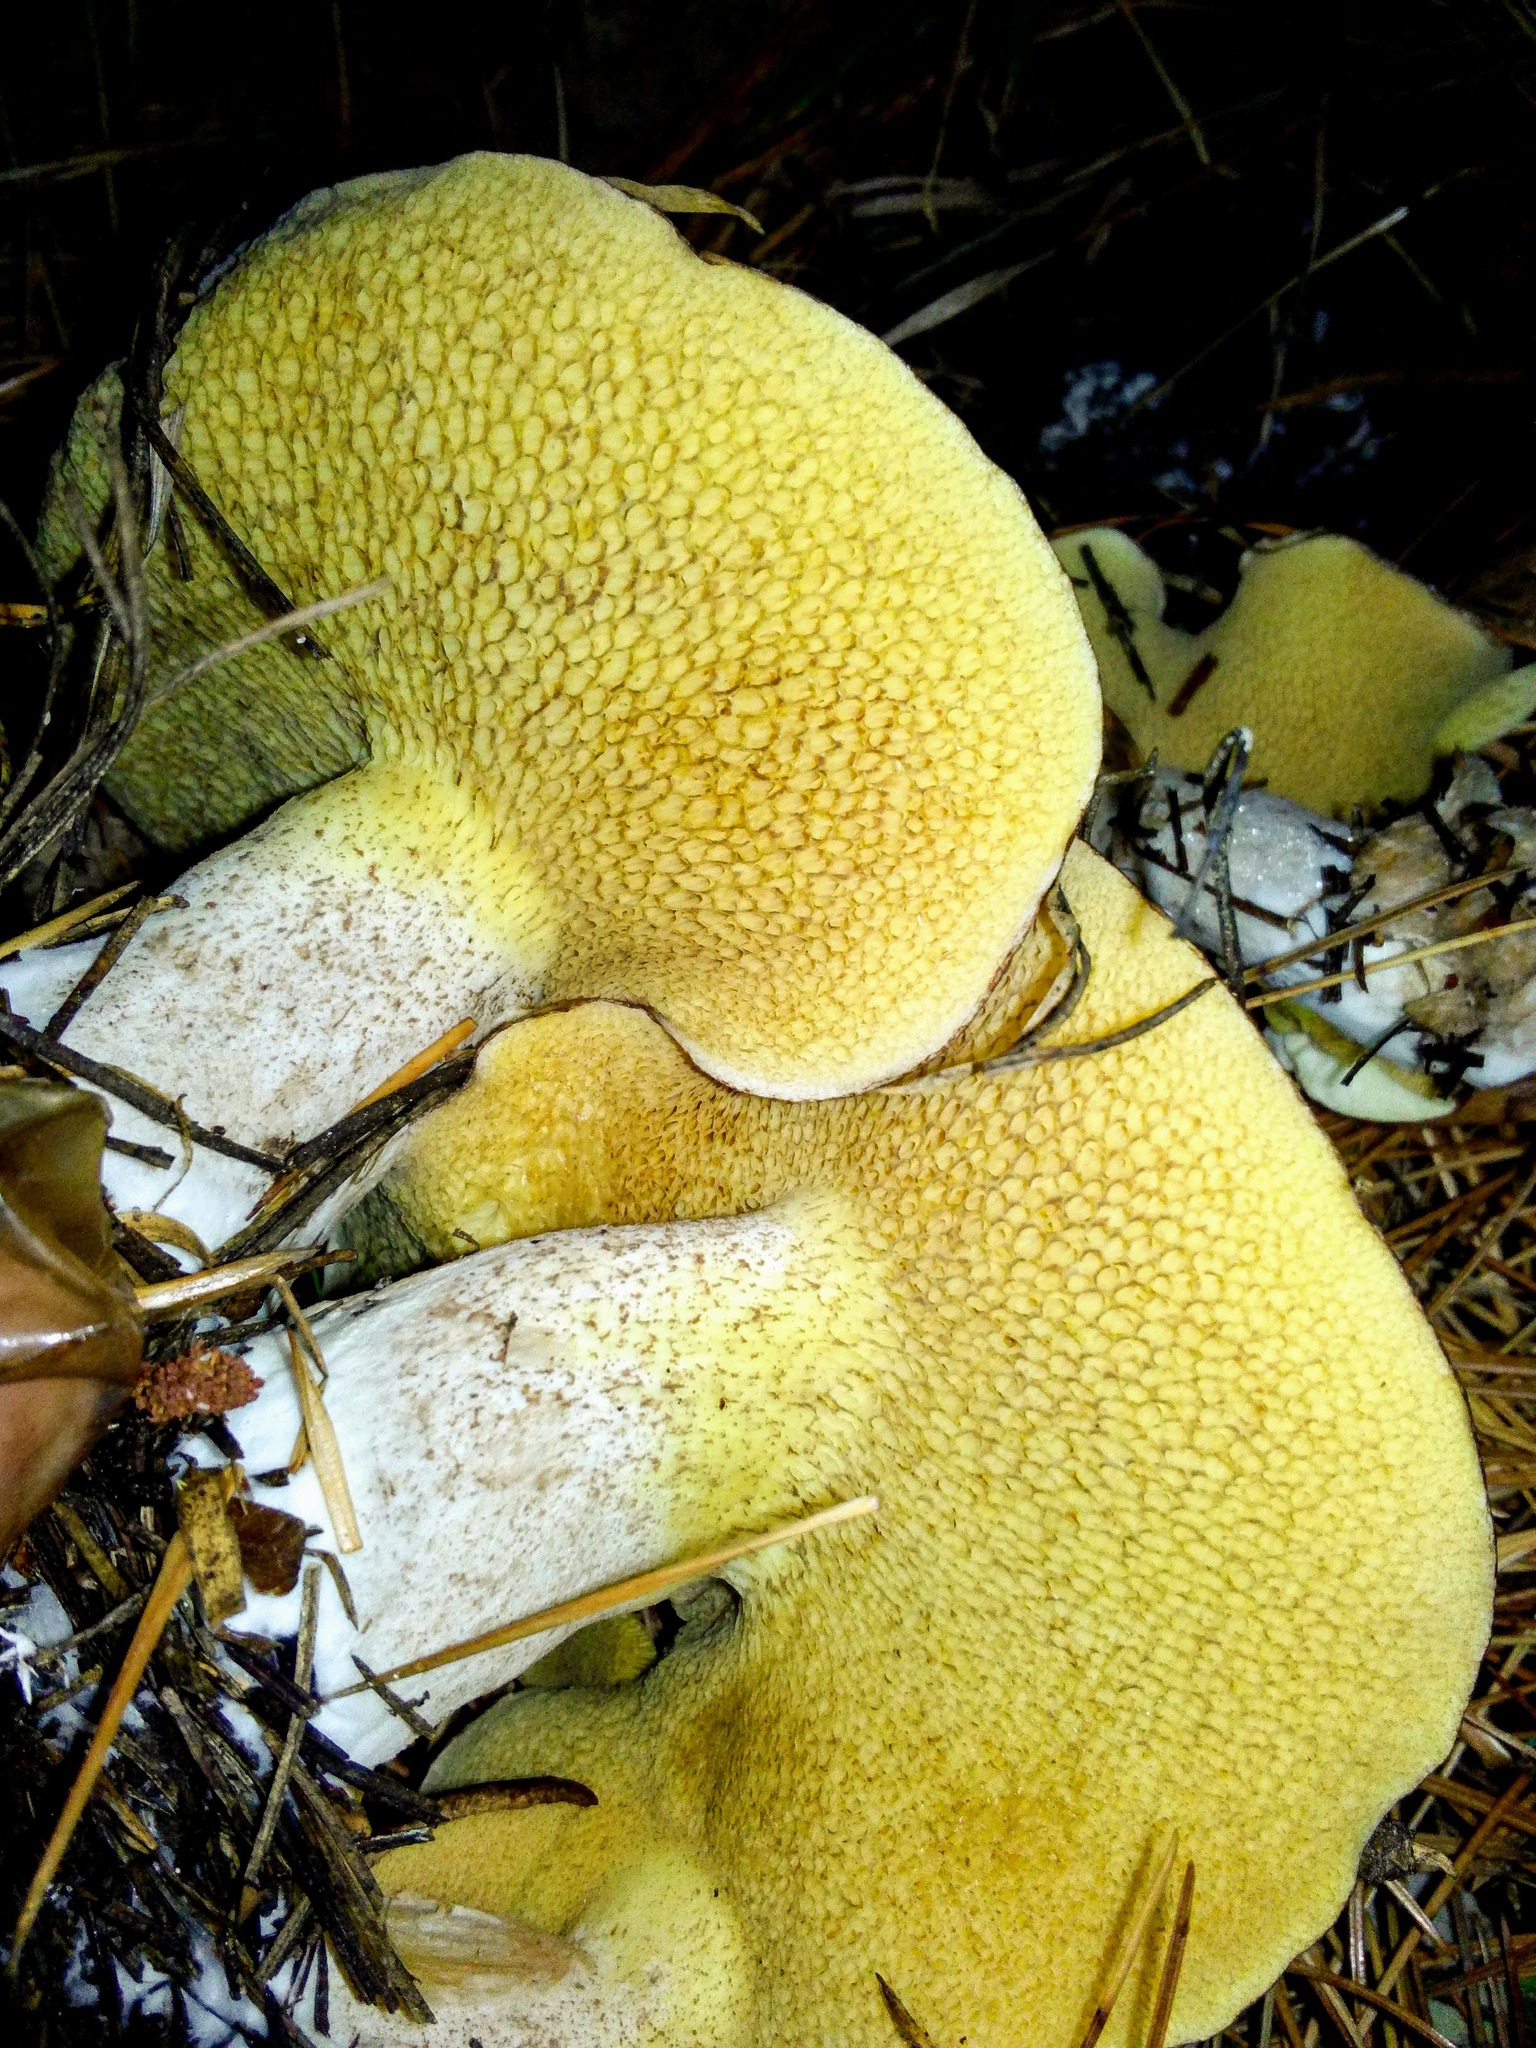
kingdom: Fungi
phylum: Basidiomycota
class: Agaricomycetes
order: Boletales
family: Suillaceae
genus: Suillus
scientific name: Suillus placidus
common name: Slippery white bolete
